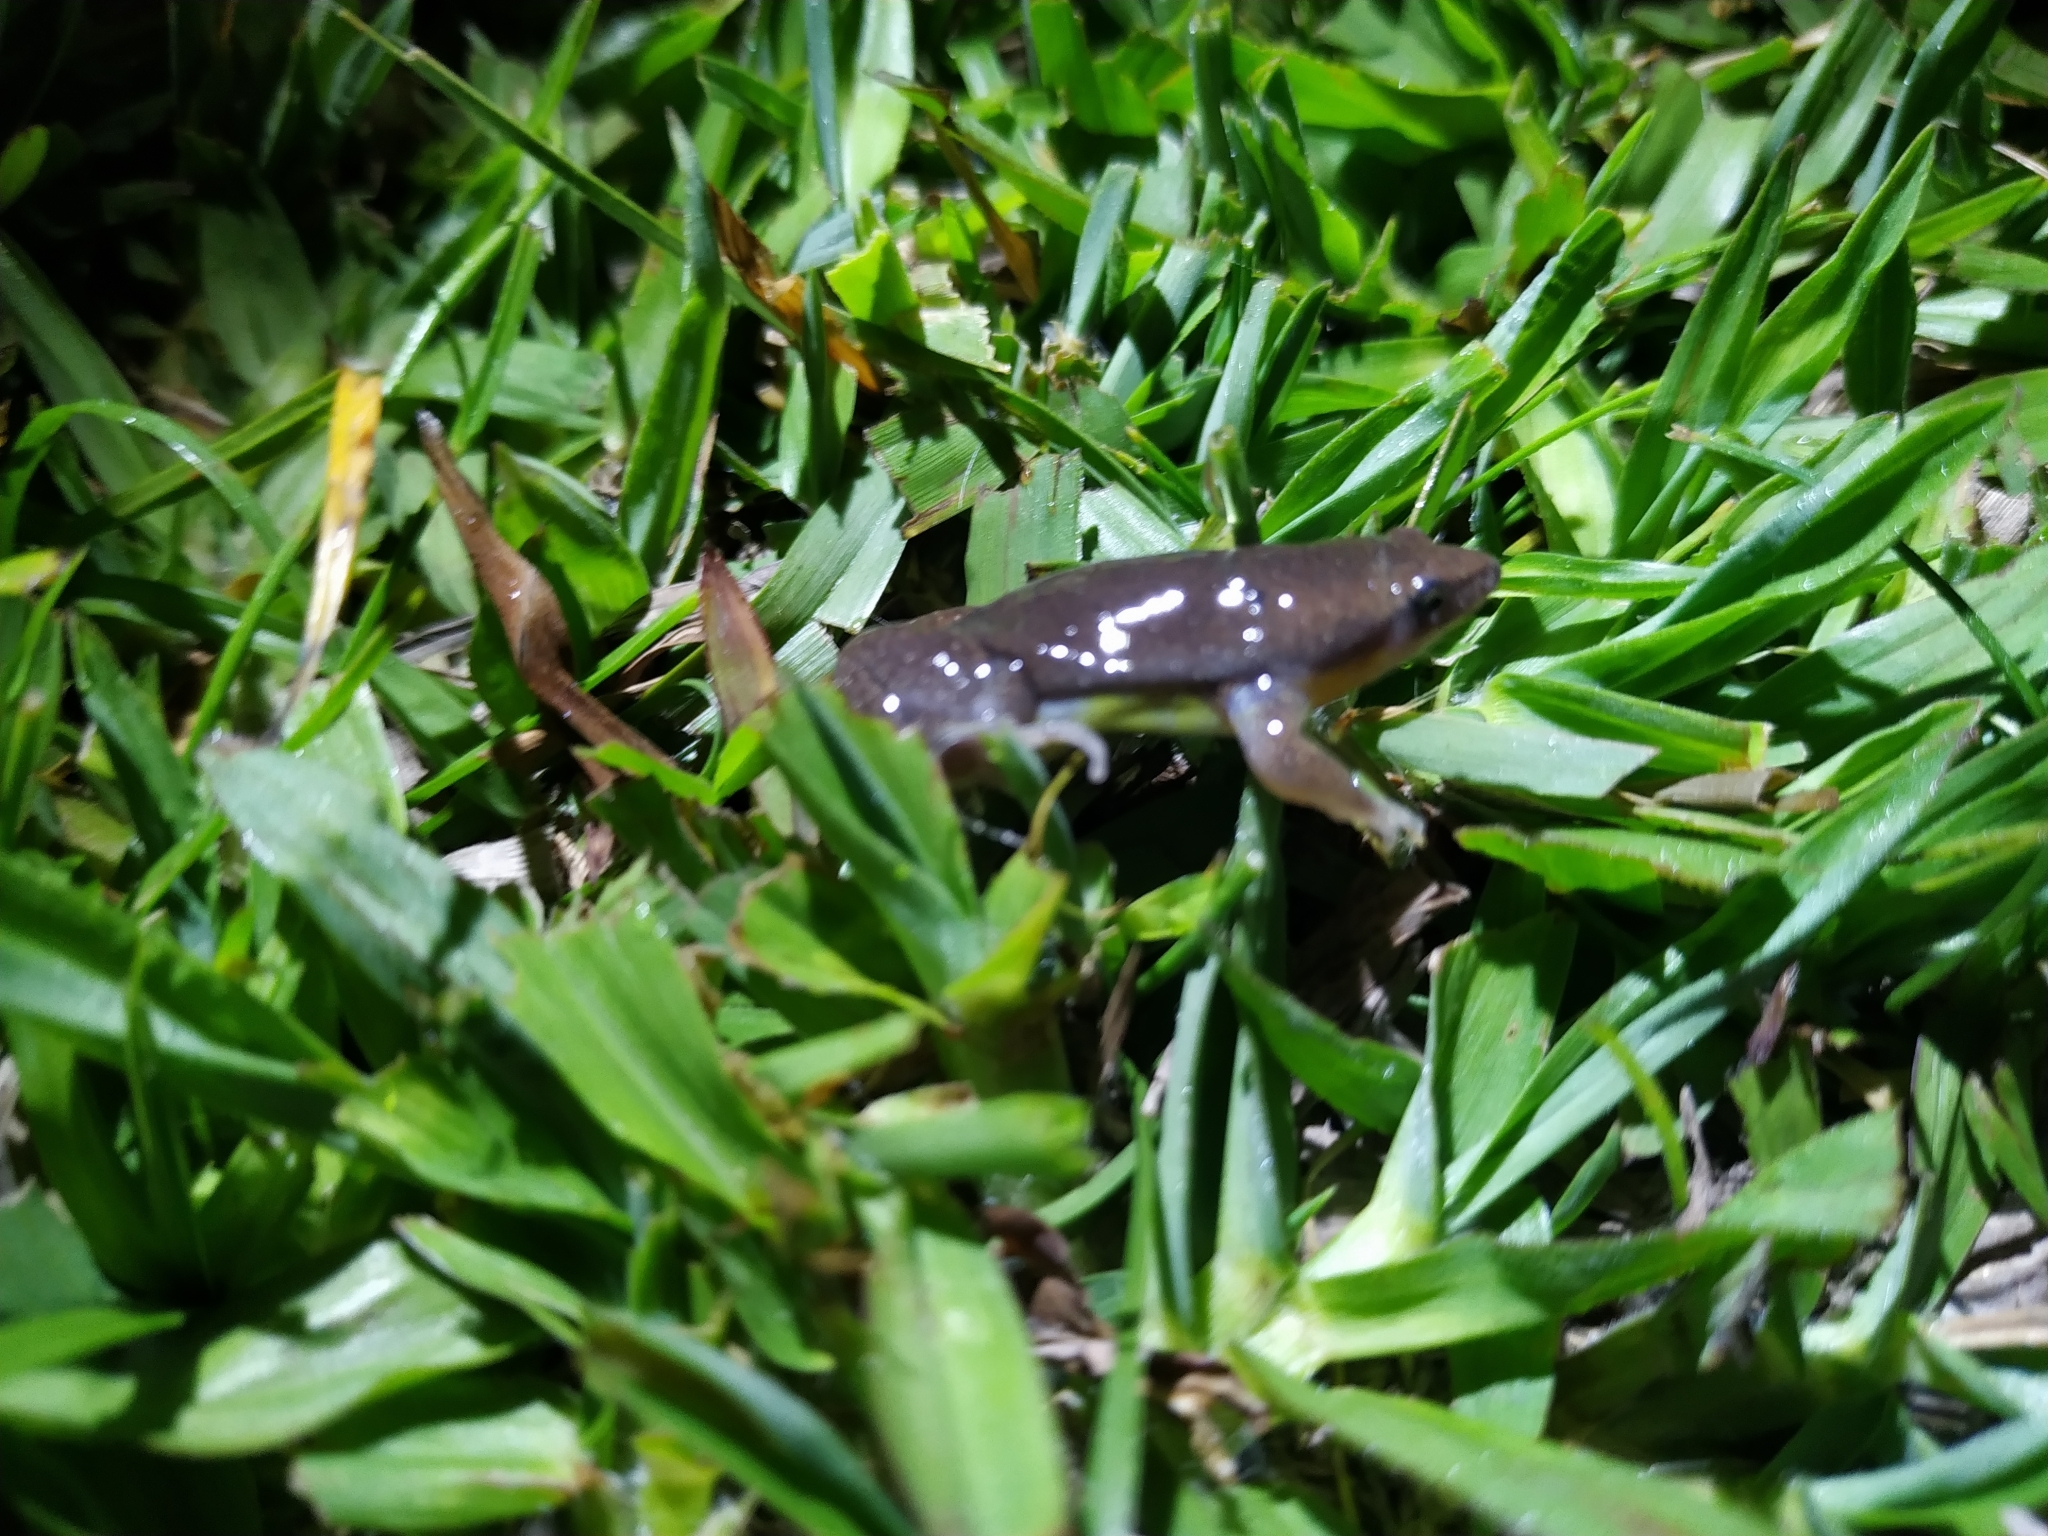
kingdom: Animalia
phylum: Chordata
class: Amphibia
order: Anura
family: Microhylidae
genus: Elachistocleis
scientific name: Elachistocleis bicolor
